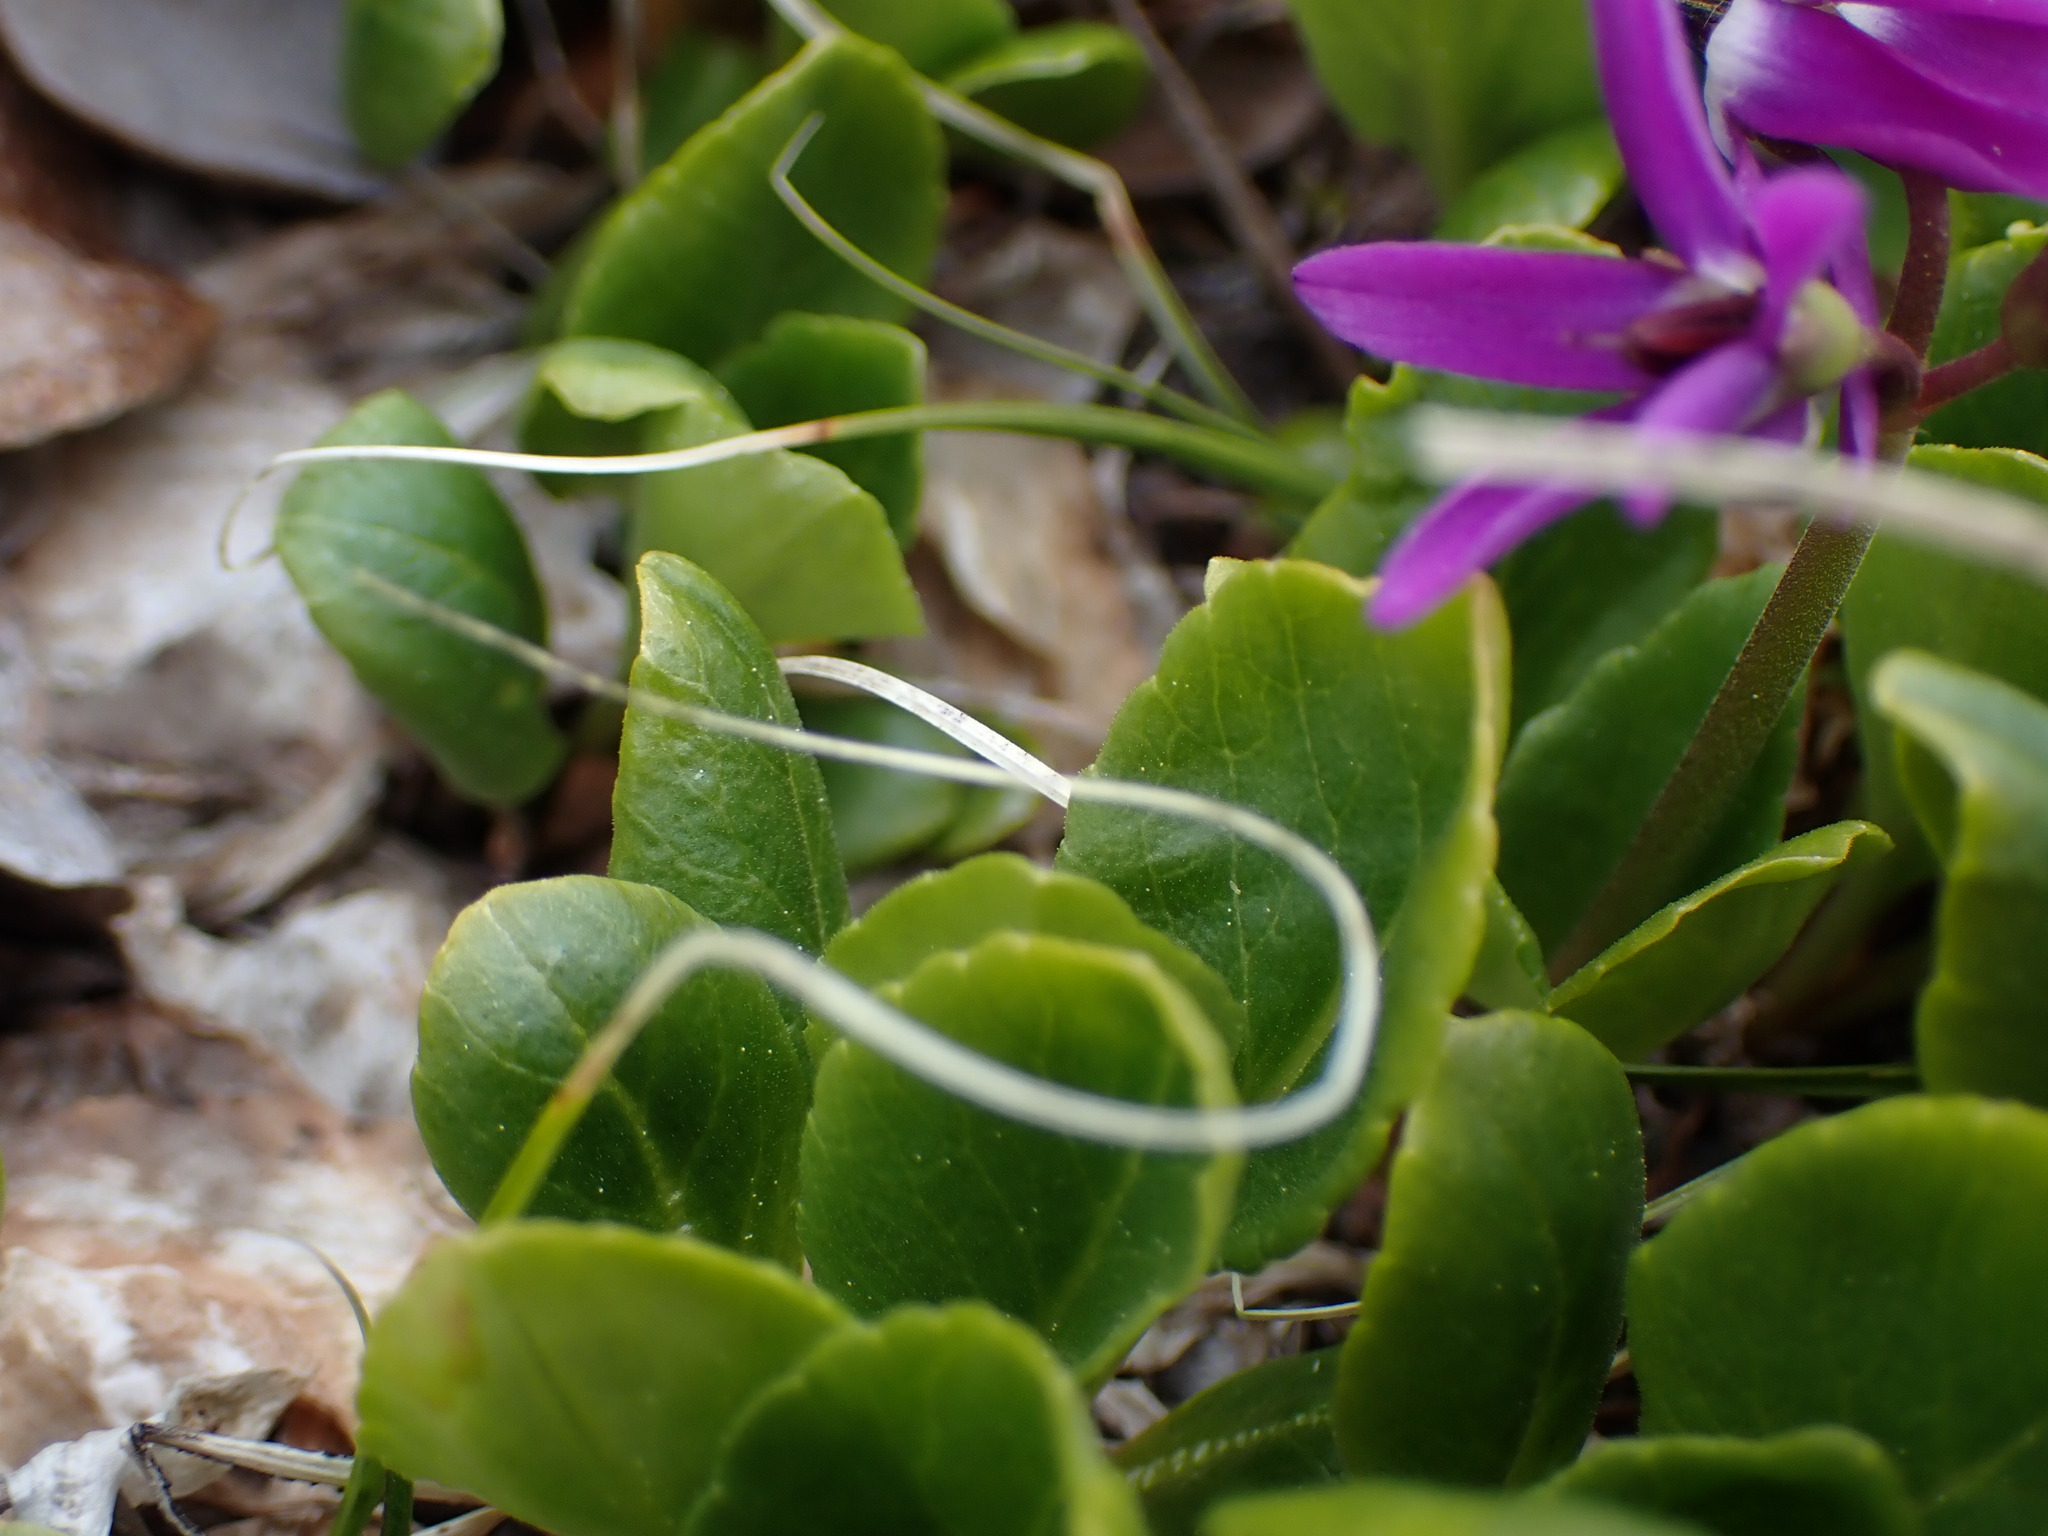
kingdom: Plantae
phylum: Tracheophyta
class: Magnoliopsida
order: Ericales
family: Primulaceae
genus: Dodecatheon
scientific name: Dodecatheon frigidum
